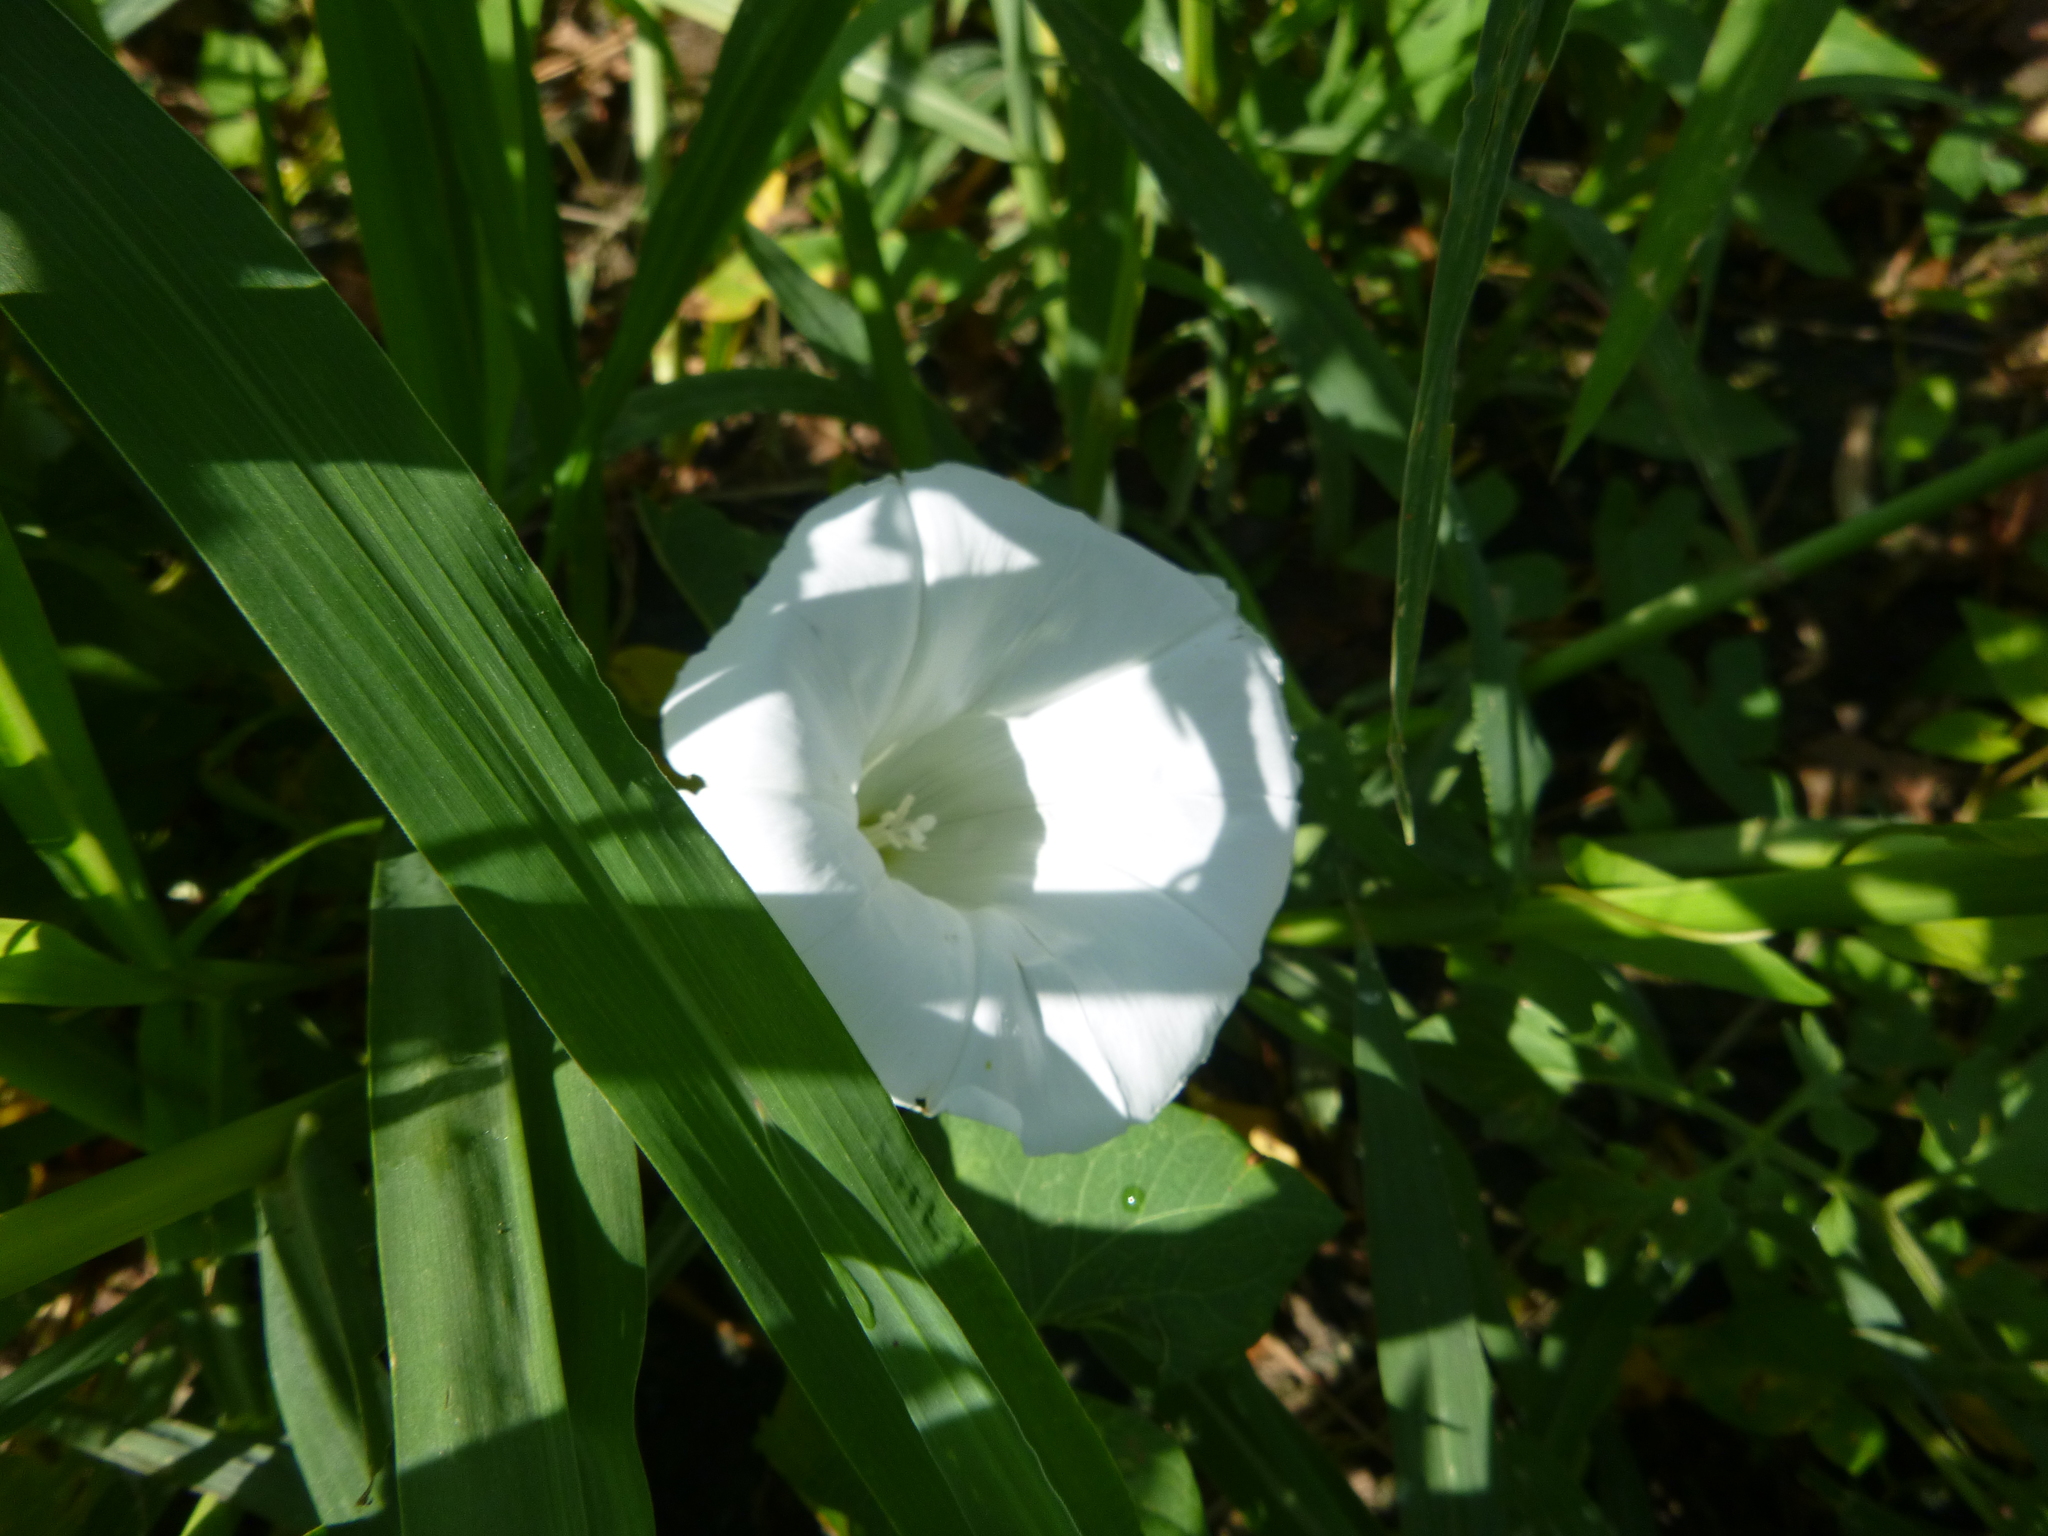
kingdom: Plantae
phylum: Tracheophyta
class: Magnoliopsida
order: Solanales
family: Convolvulaceae
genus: Calystegia
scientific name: Calystegia sepium
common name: Hedge bindweed
